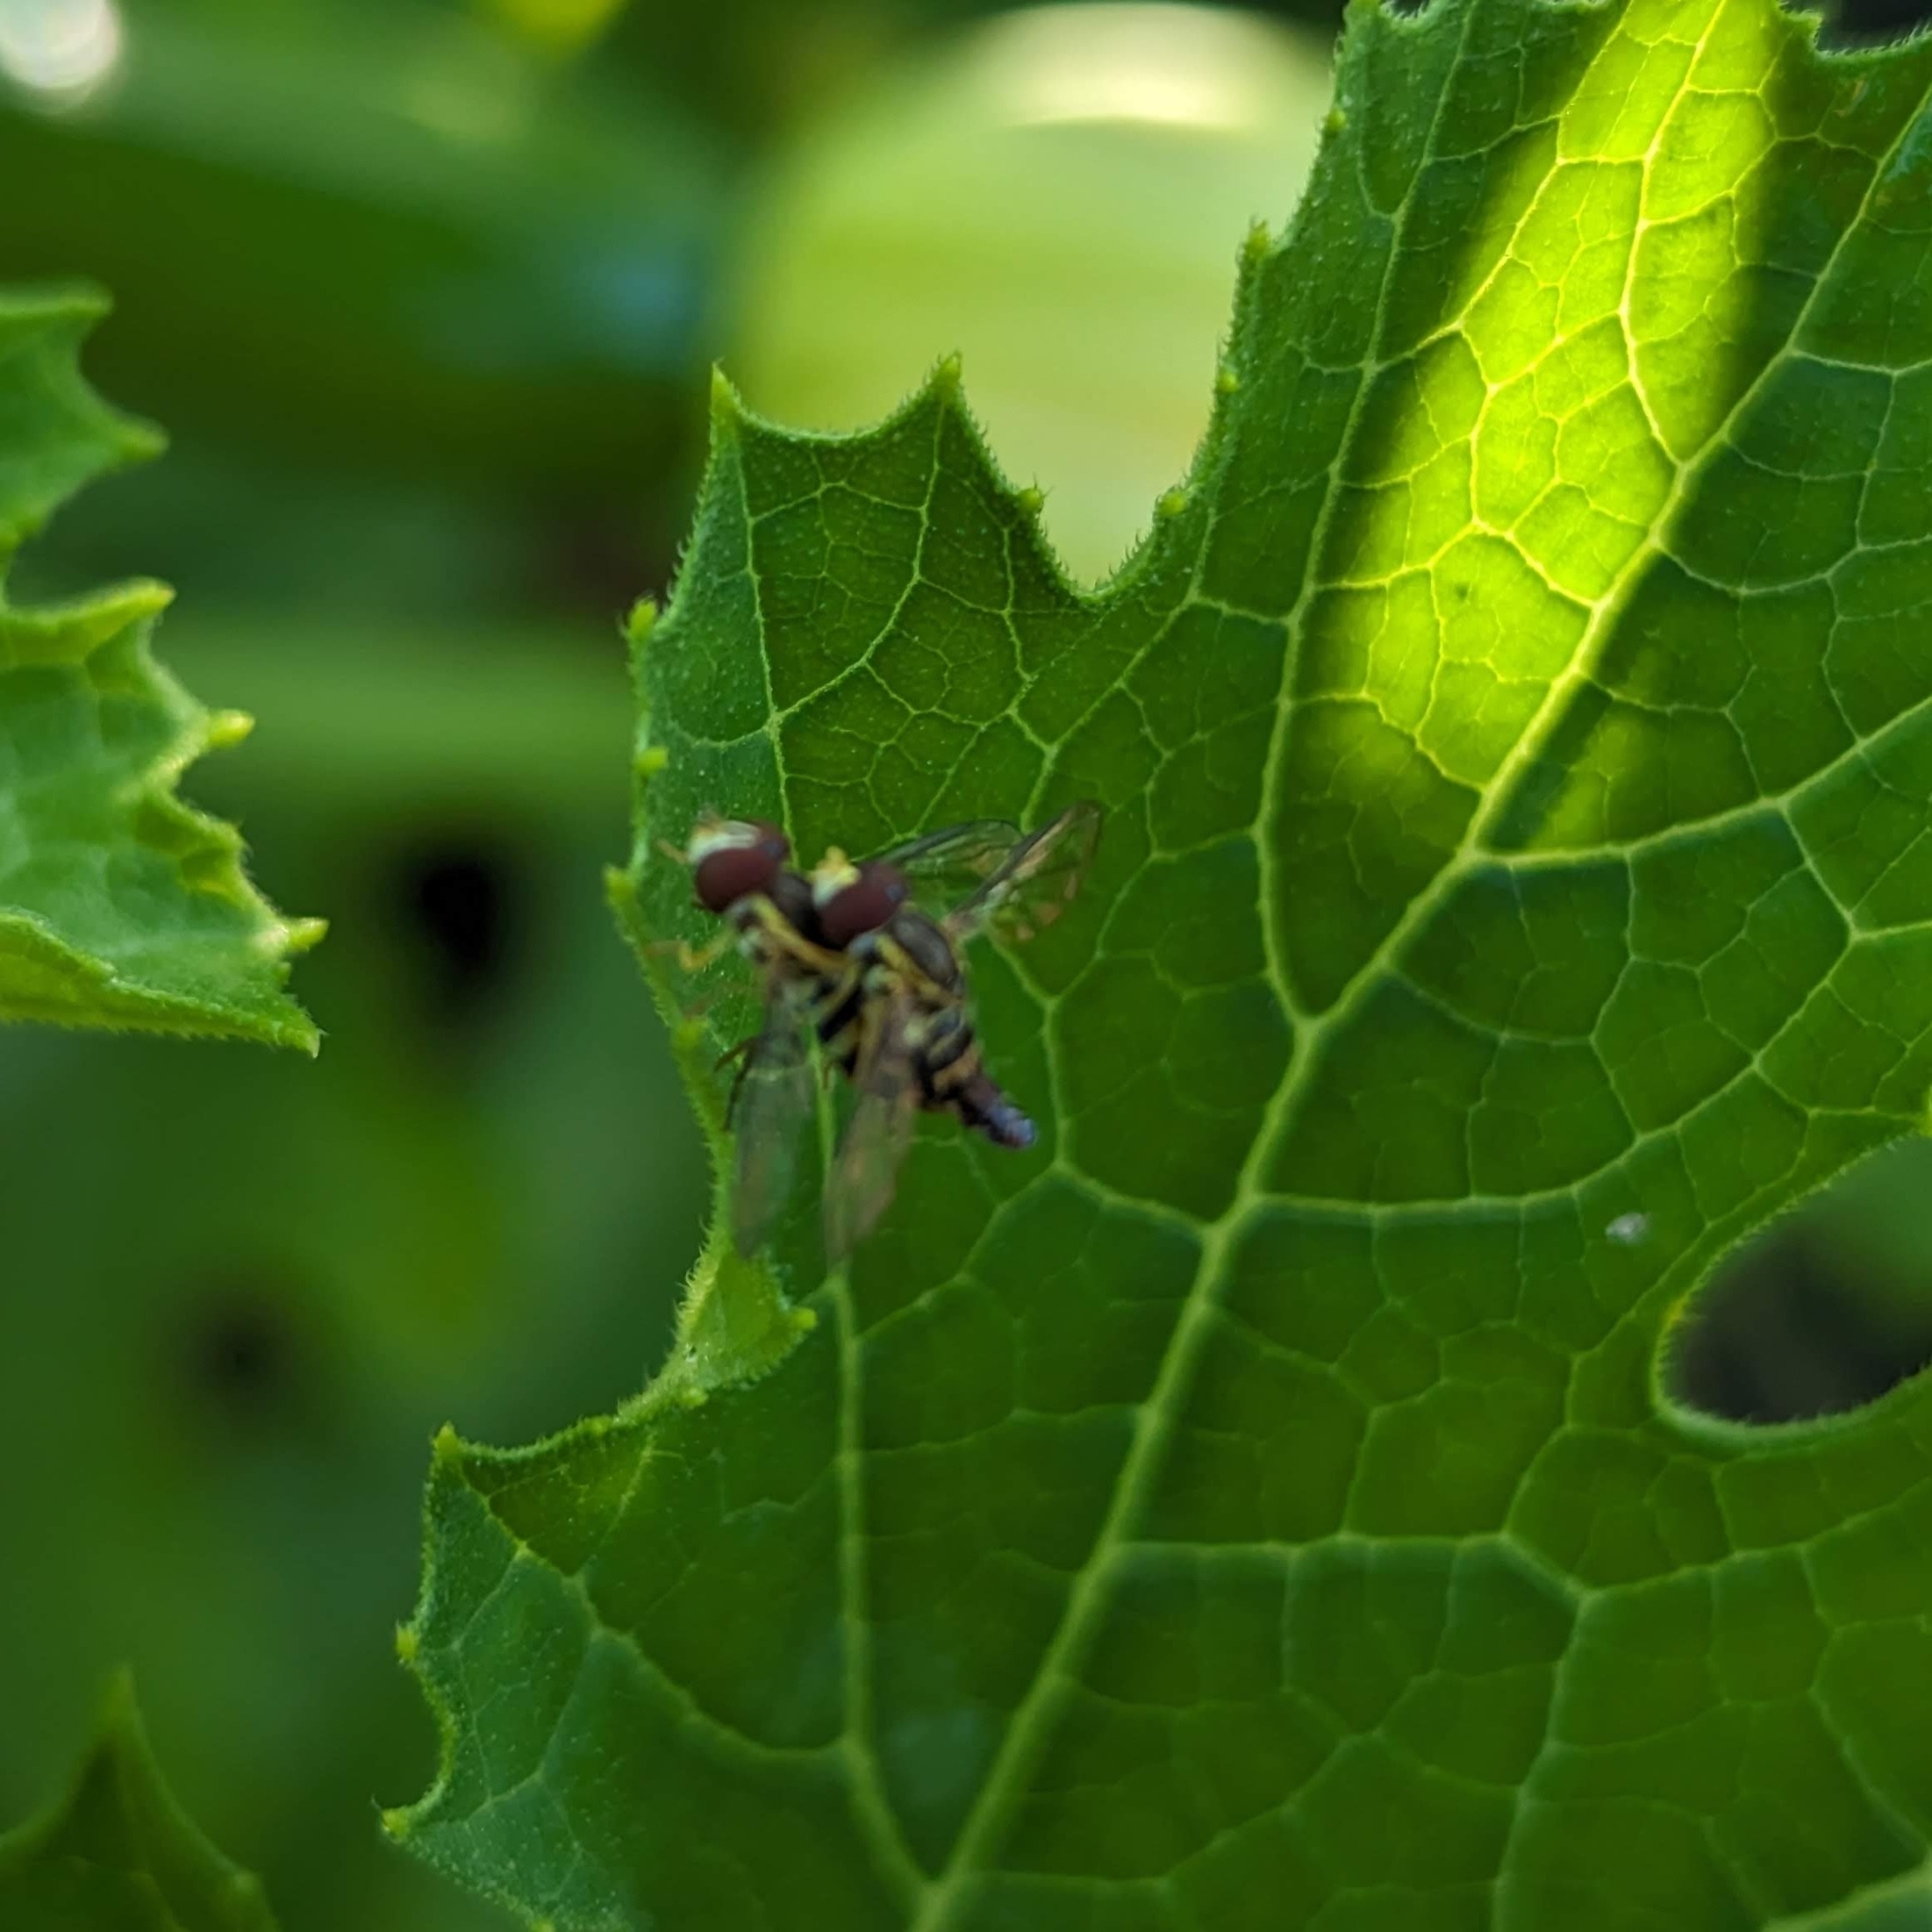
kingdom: Animalia
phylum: Arthropoda
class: Insecta
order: Diptera
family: Syrphidae
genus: Toxomerus
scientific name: Toxomerus geminatus
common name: Eastern calligrapher
